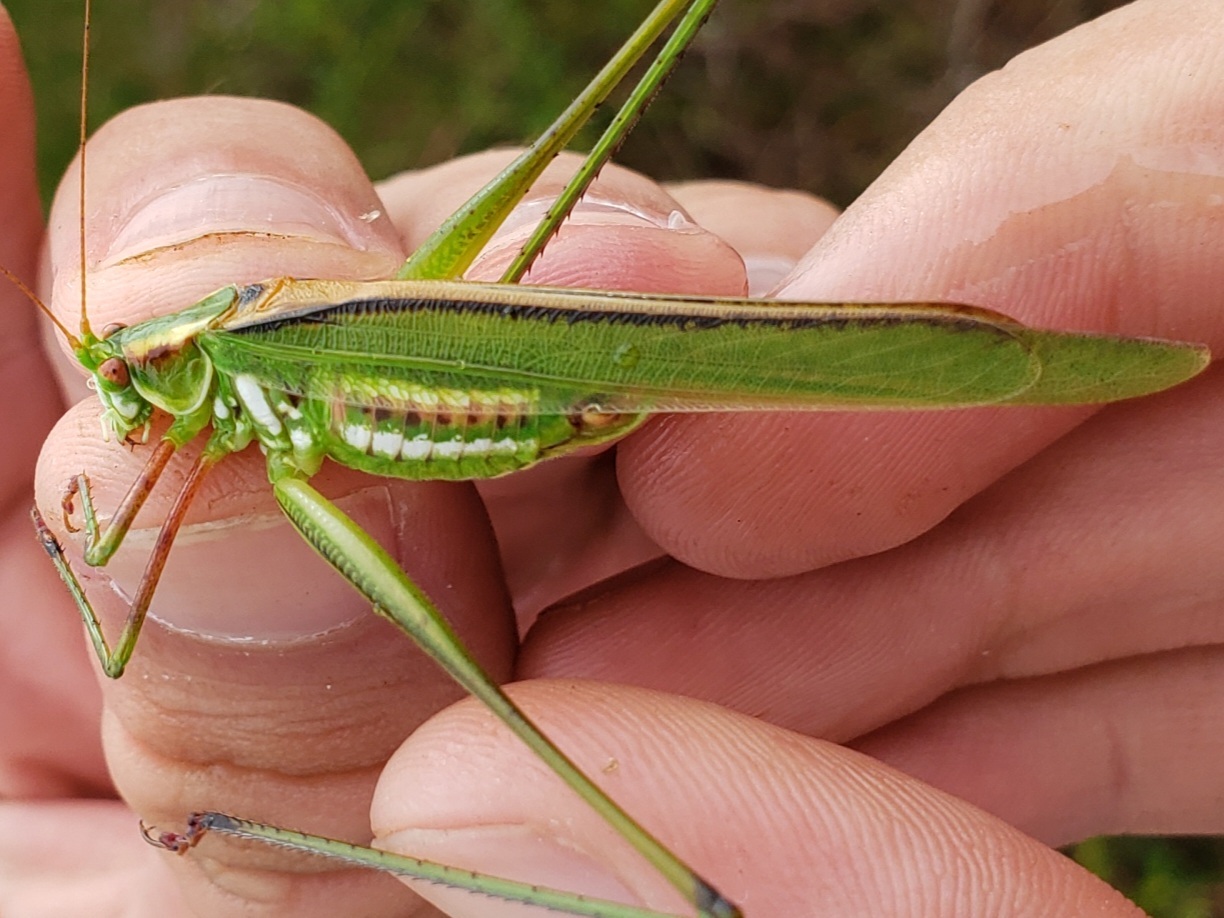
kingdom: Animalia
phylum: Arthropoda
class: Insecta
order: Orthoptera
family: Tettigoniidae
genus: Inscudderia
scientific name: Inscudderia strigata
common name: Guinea-cypress katydid
